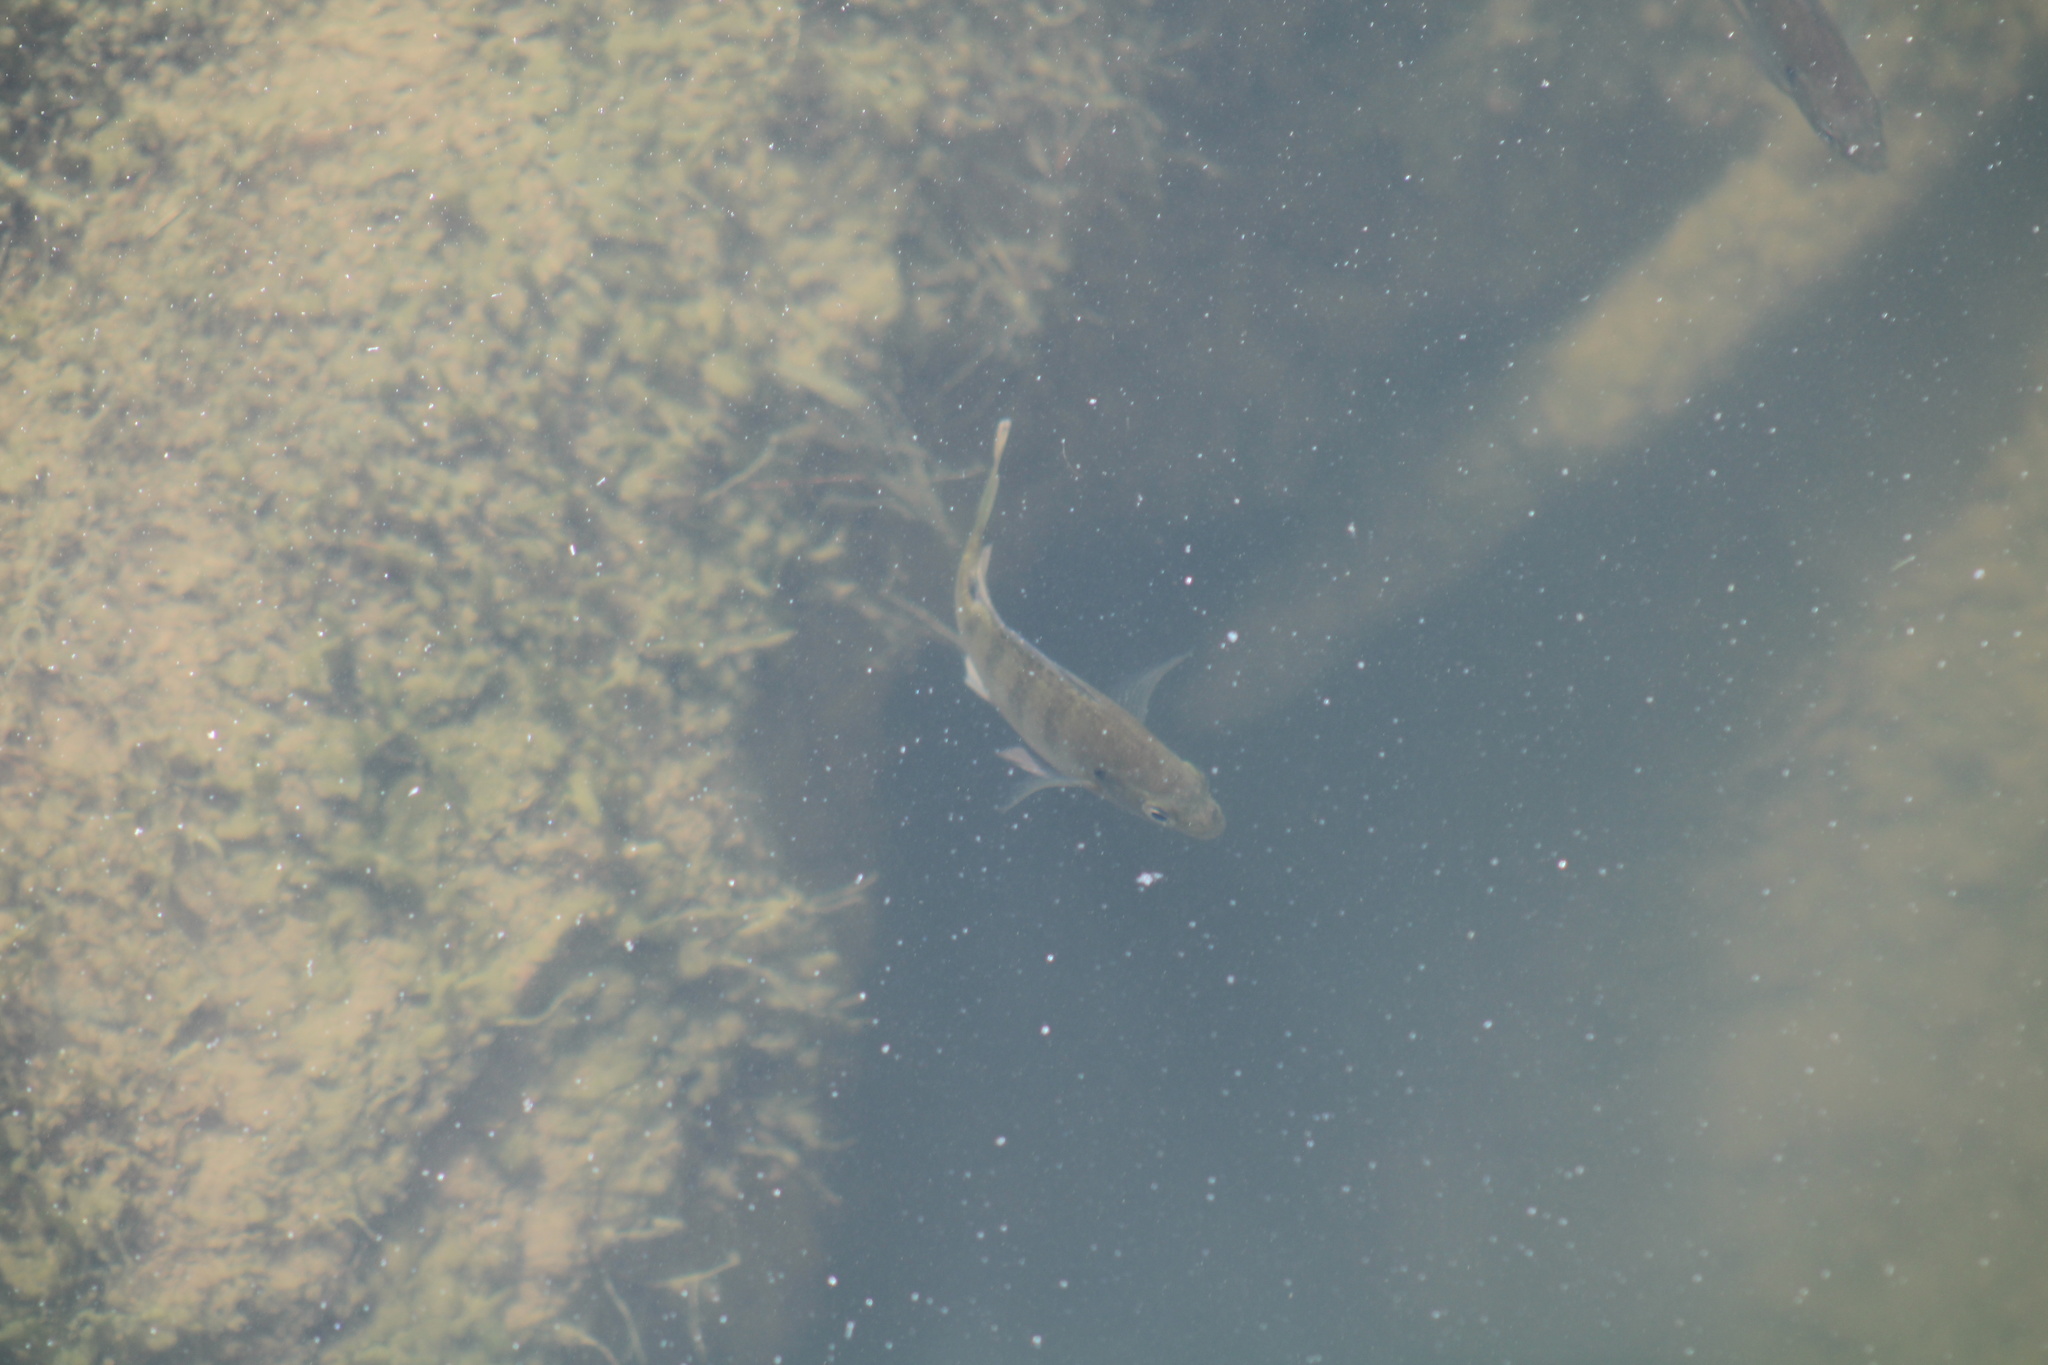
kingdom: Animalia
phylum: Chordata
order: Perciformes
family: Centrarchidae
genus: Lepomis
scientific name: Lepomis macrochirus
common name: Bluegill
